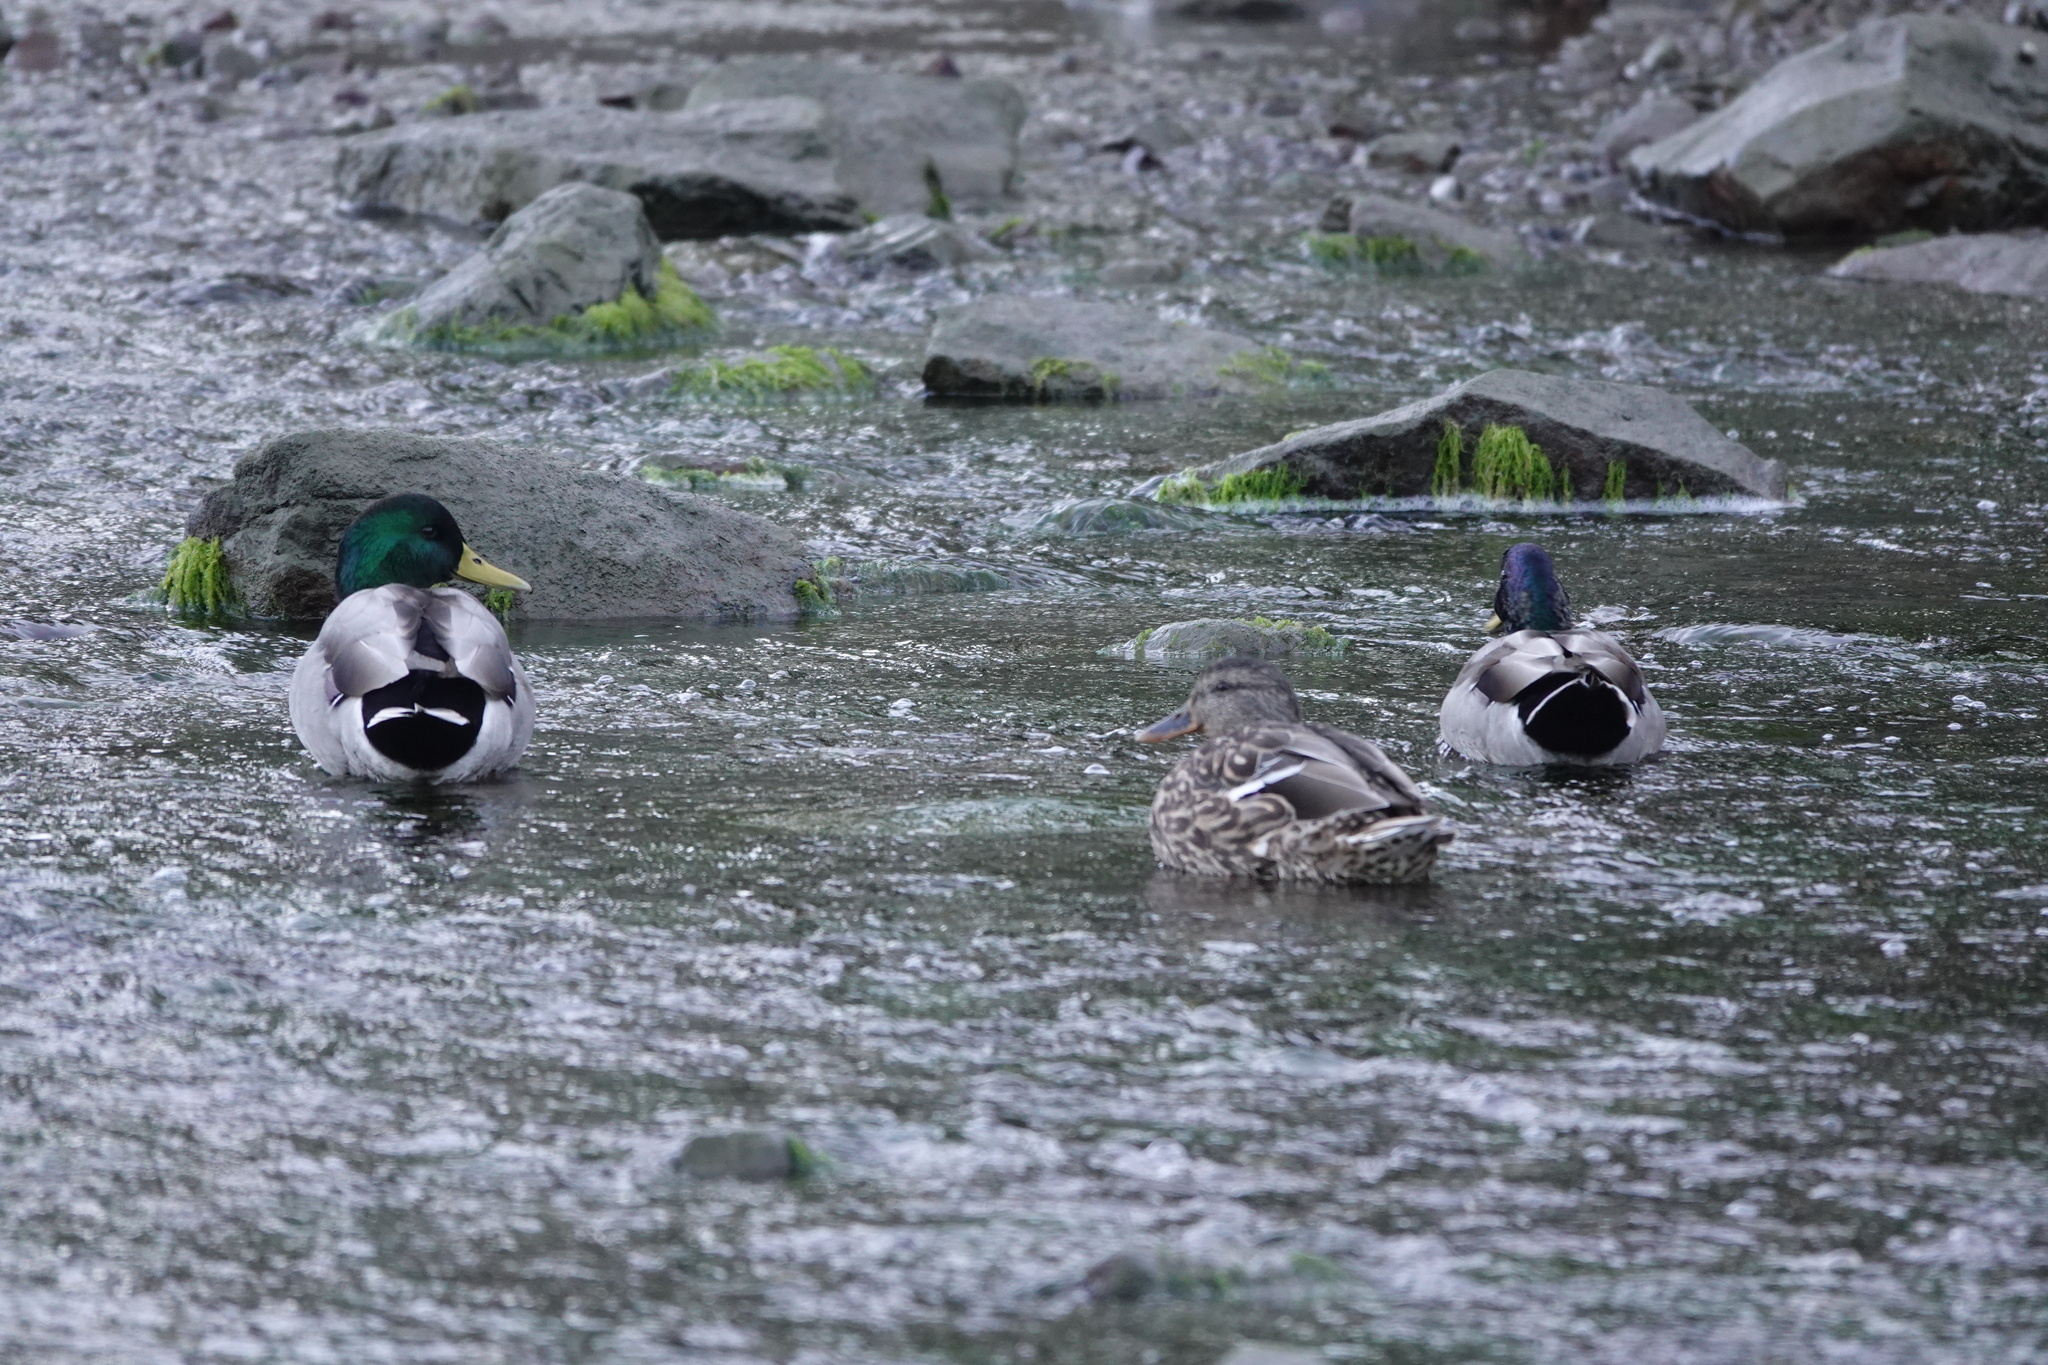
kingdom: Animalia
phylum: Chordata
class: Aves
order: Anseriformes
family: Anatidae
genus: Anas
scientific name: Anas platyrhynchos
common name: Mallard
